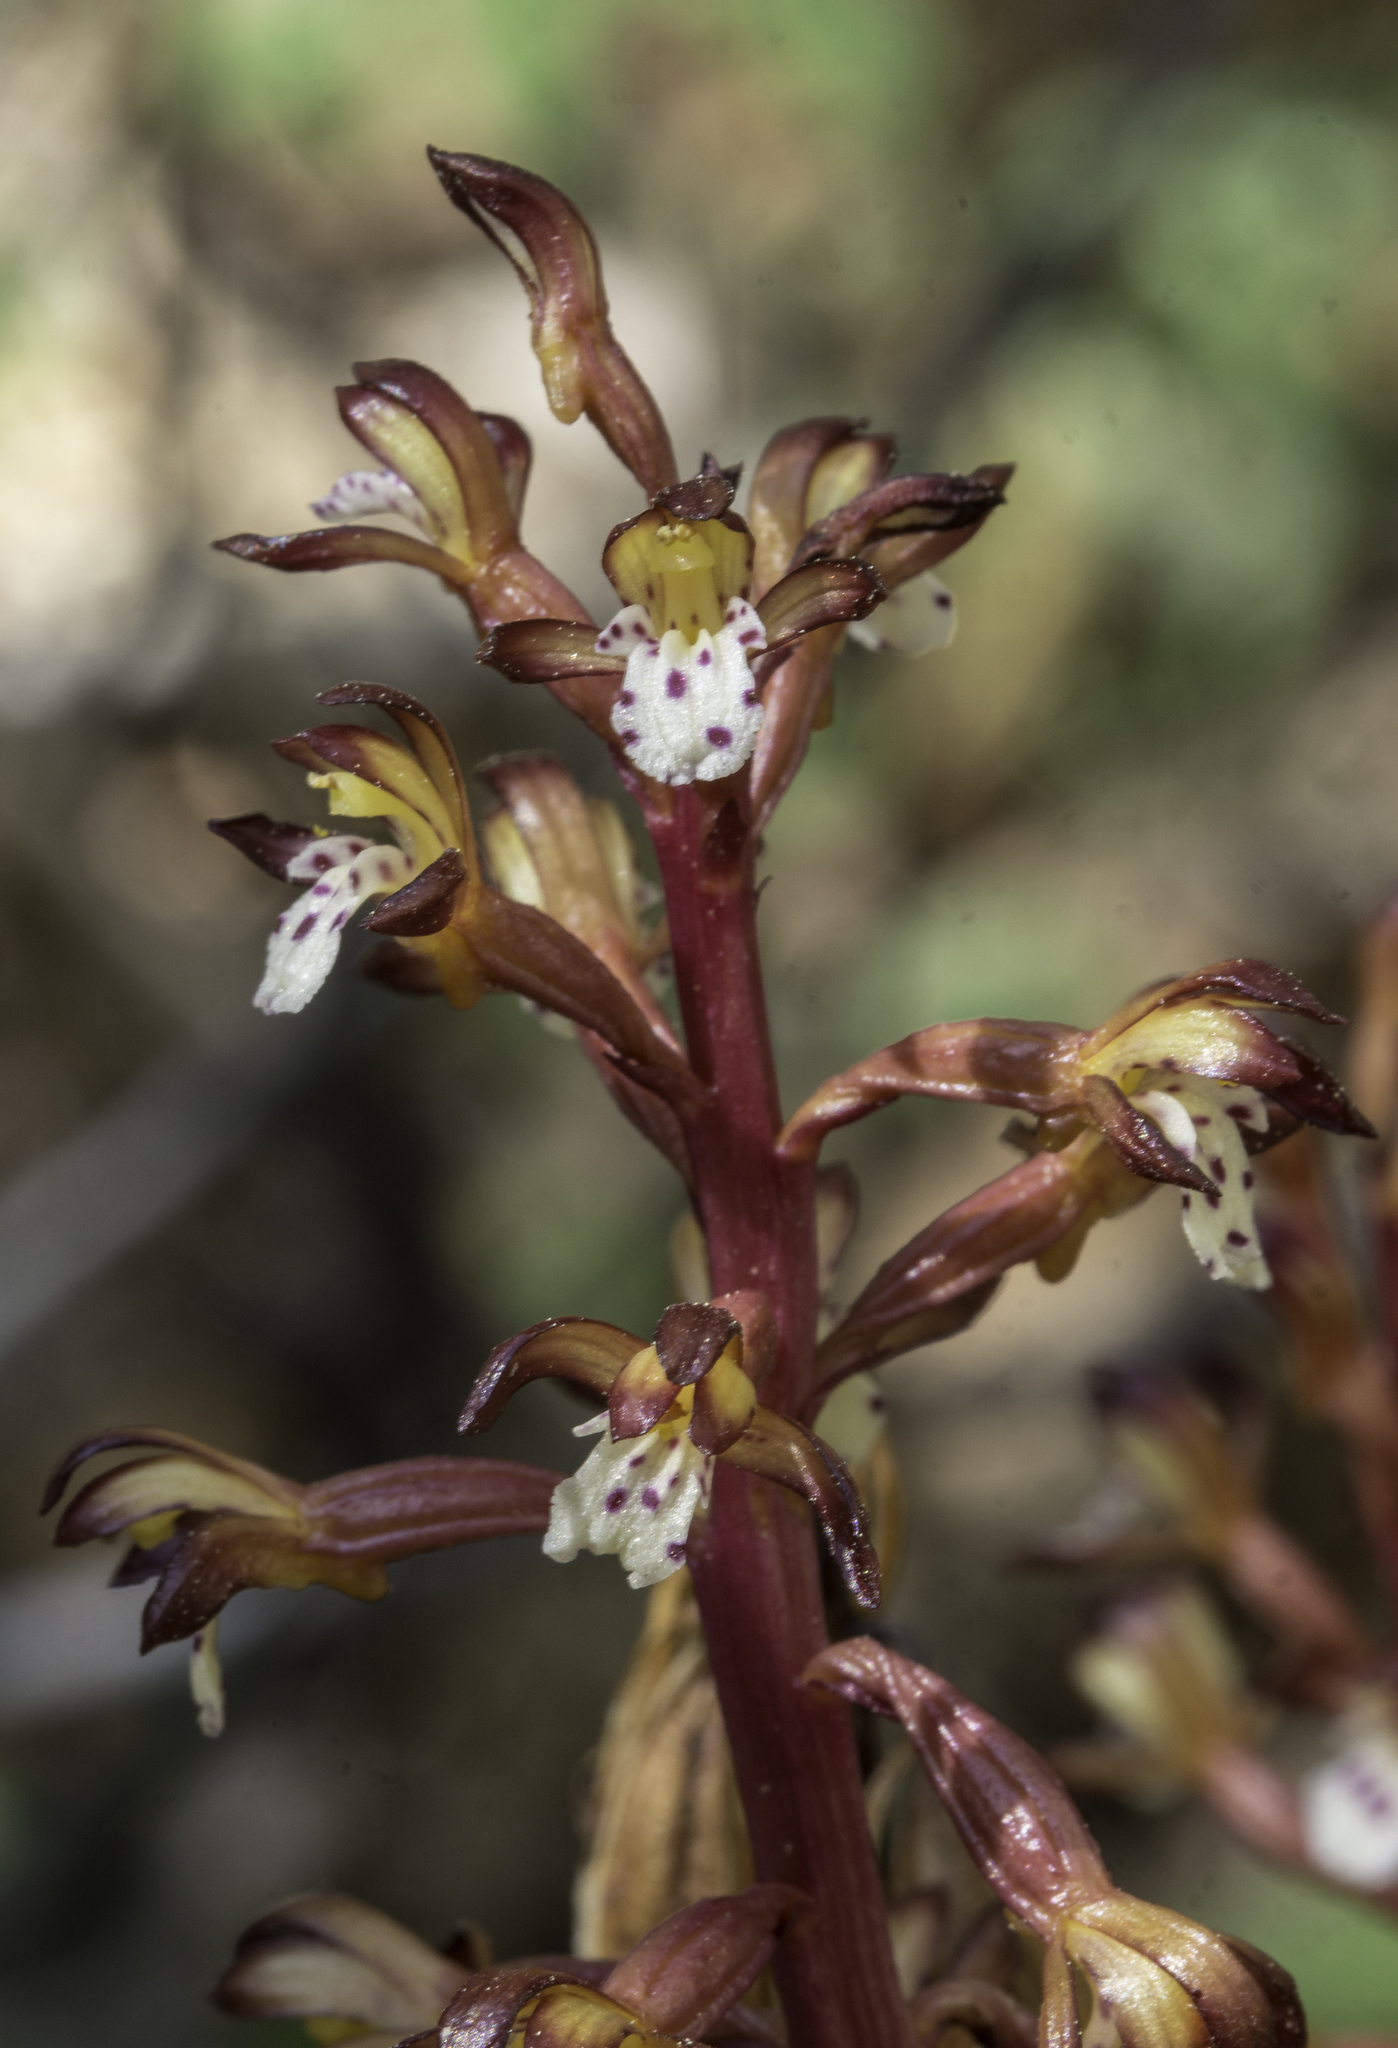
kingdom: Plantae
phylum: Tracheophyta
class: Liliopsida
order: Asparagales
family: Orchidaceae
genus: Corallorhiza
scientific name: Corallorhiza maculata
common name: Spotted coralroot
